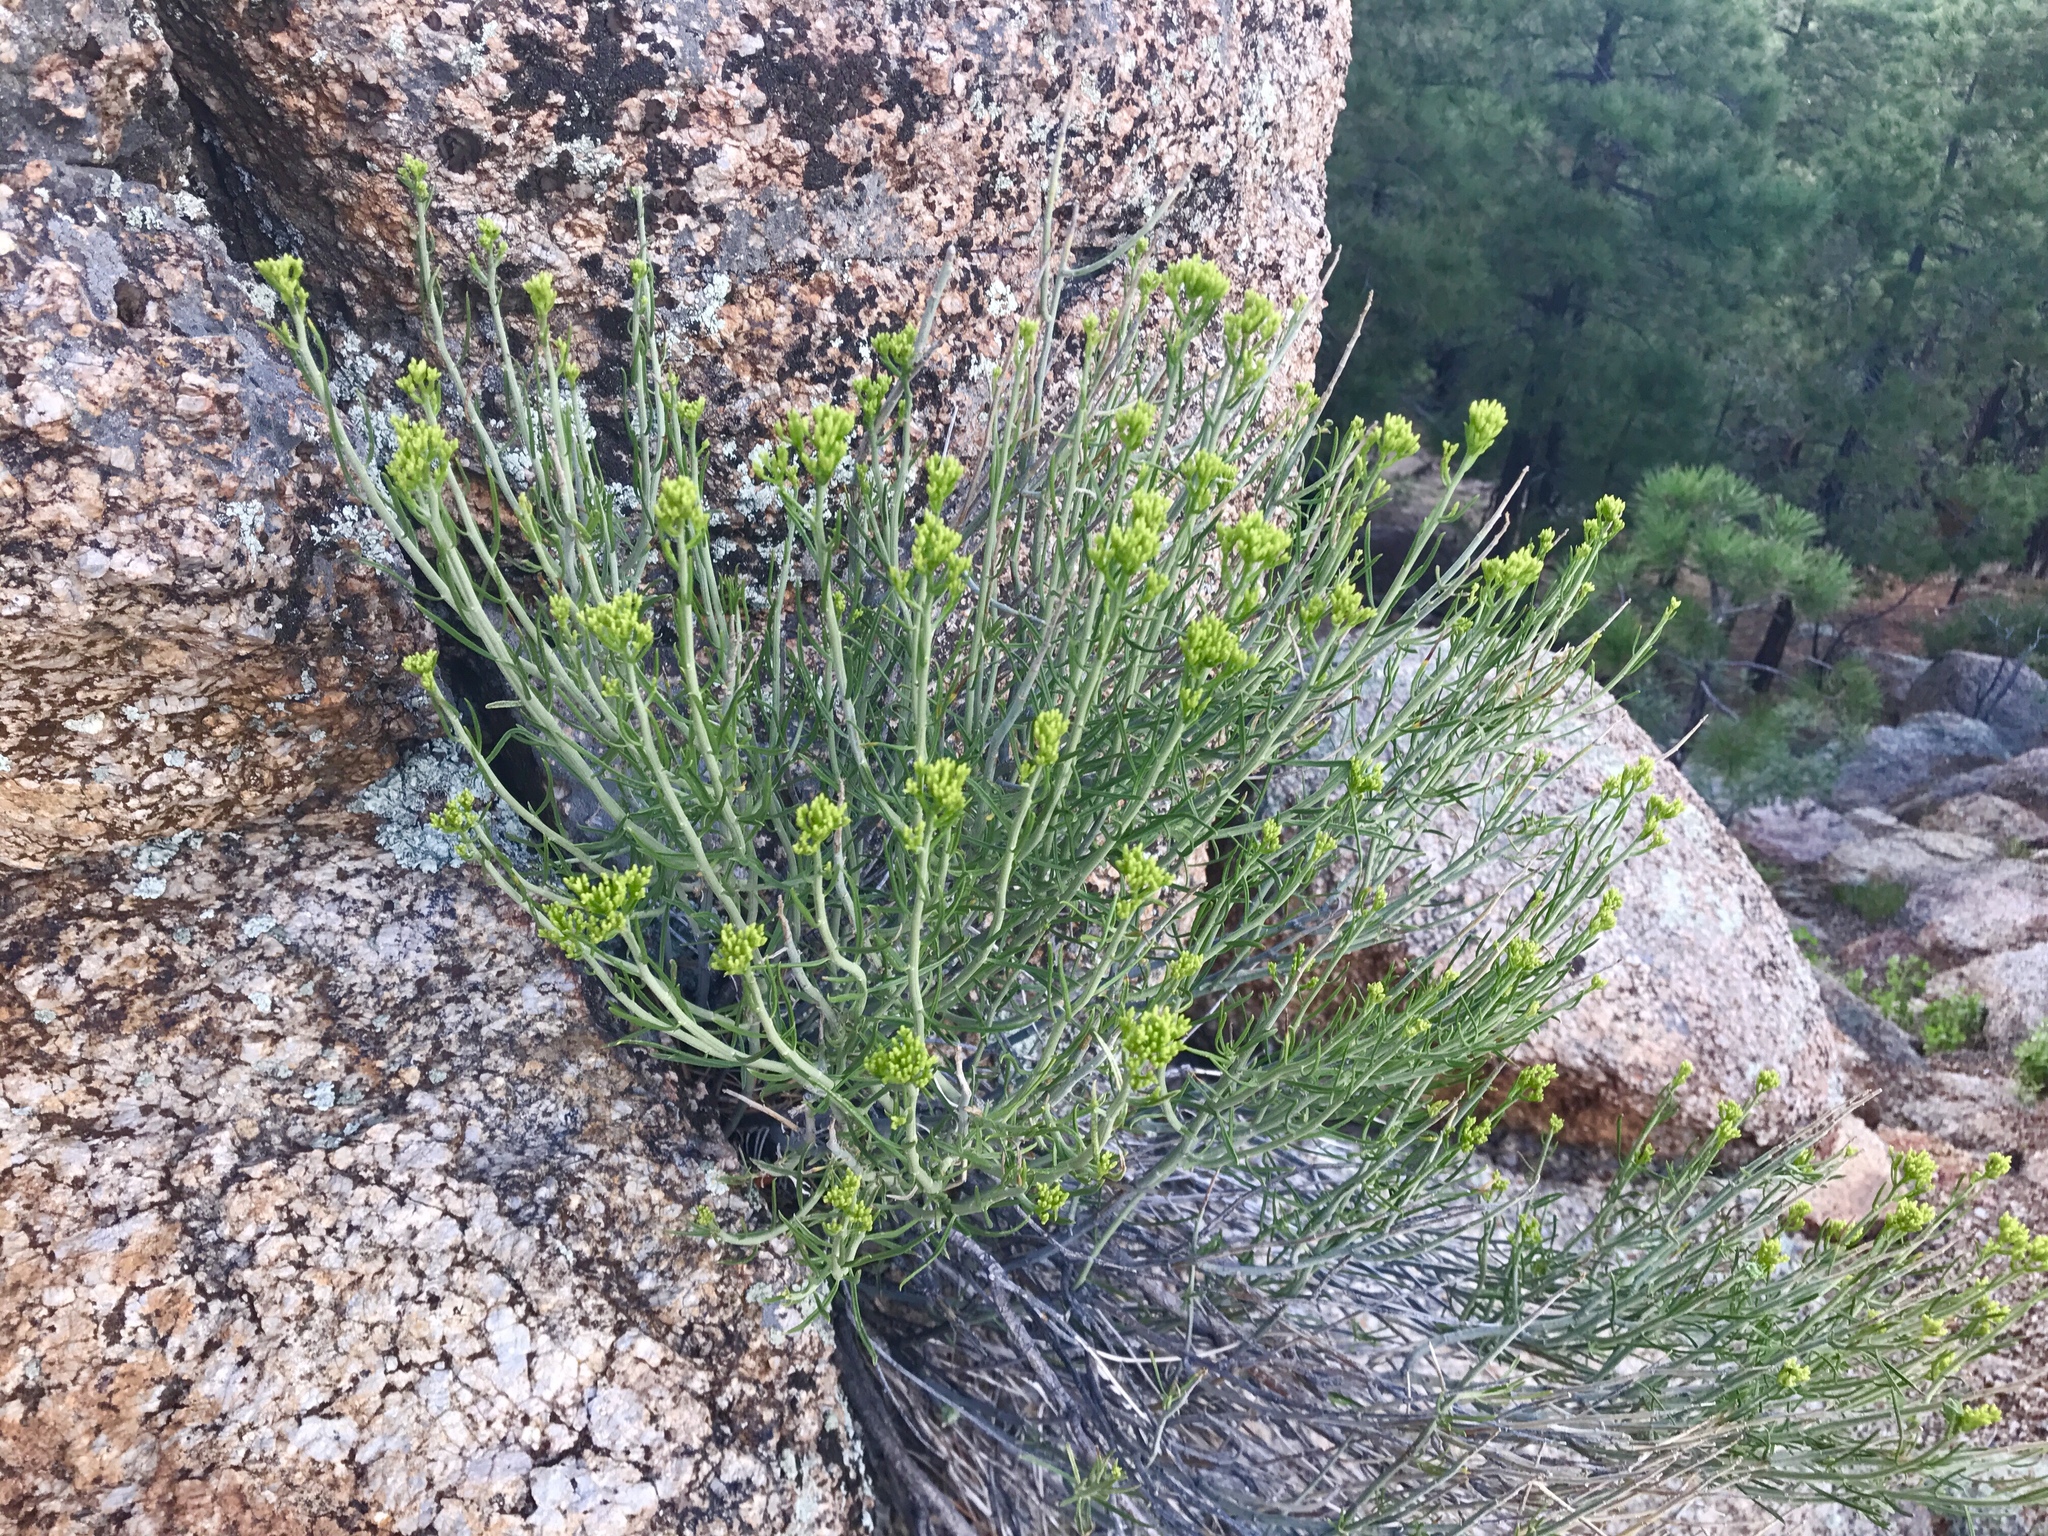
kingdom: Plantae
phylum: Tracheophyta
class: Magnoliopsida
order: Asterales
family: Asteraceae
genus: Ericameria
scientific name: Ericameria nauseosa
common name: Rubber rabbitbrush
